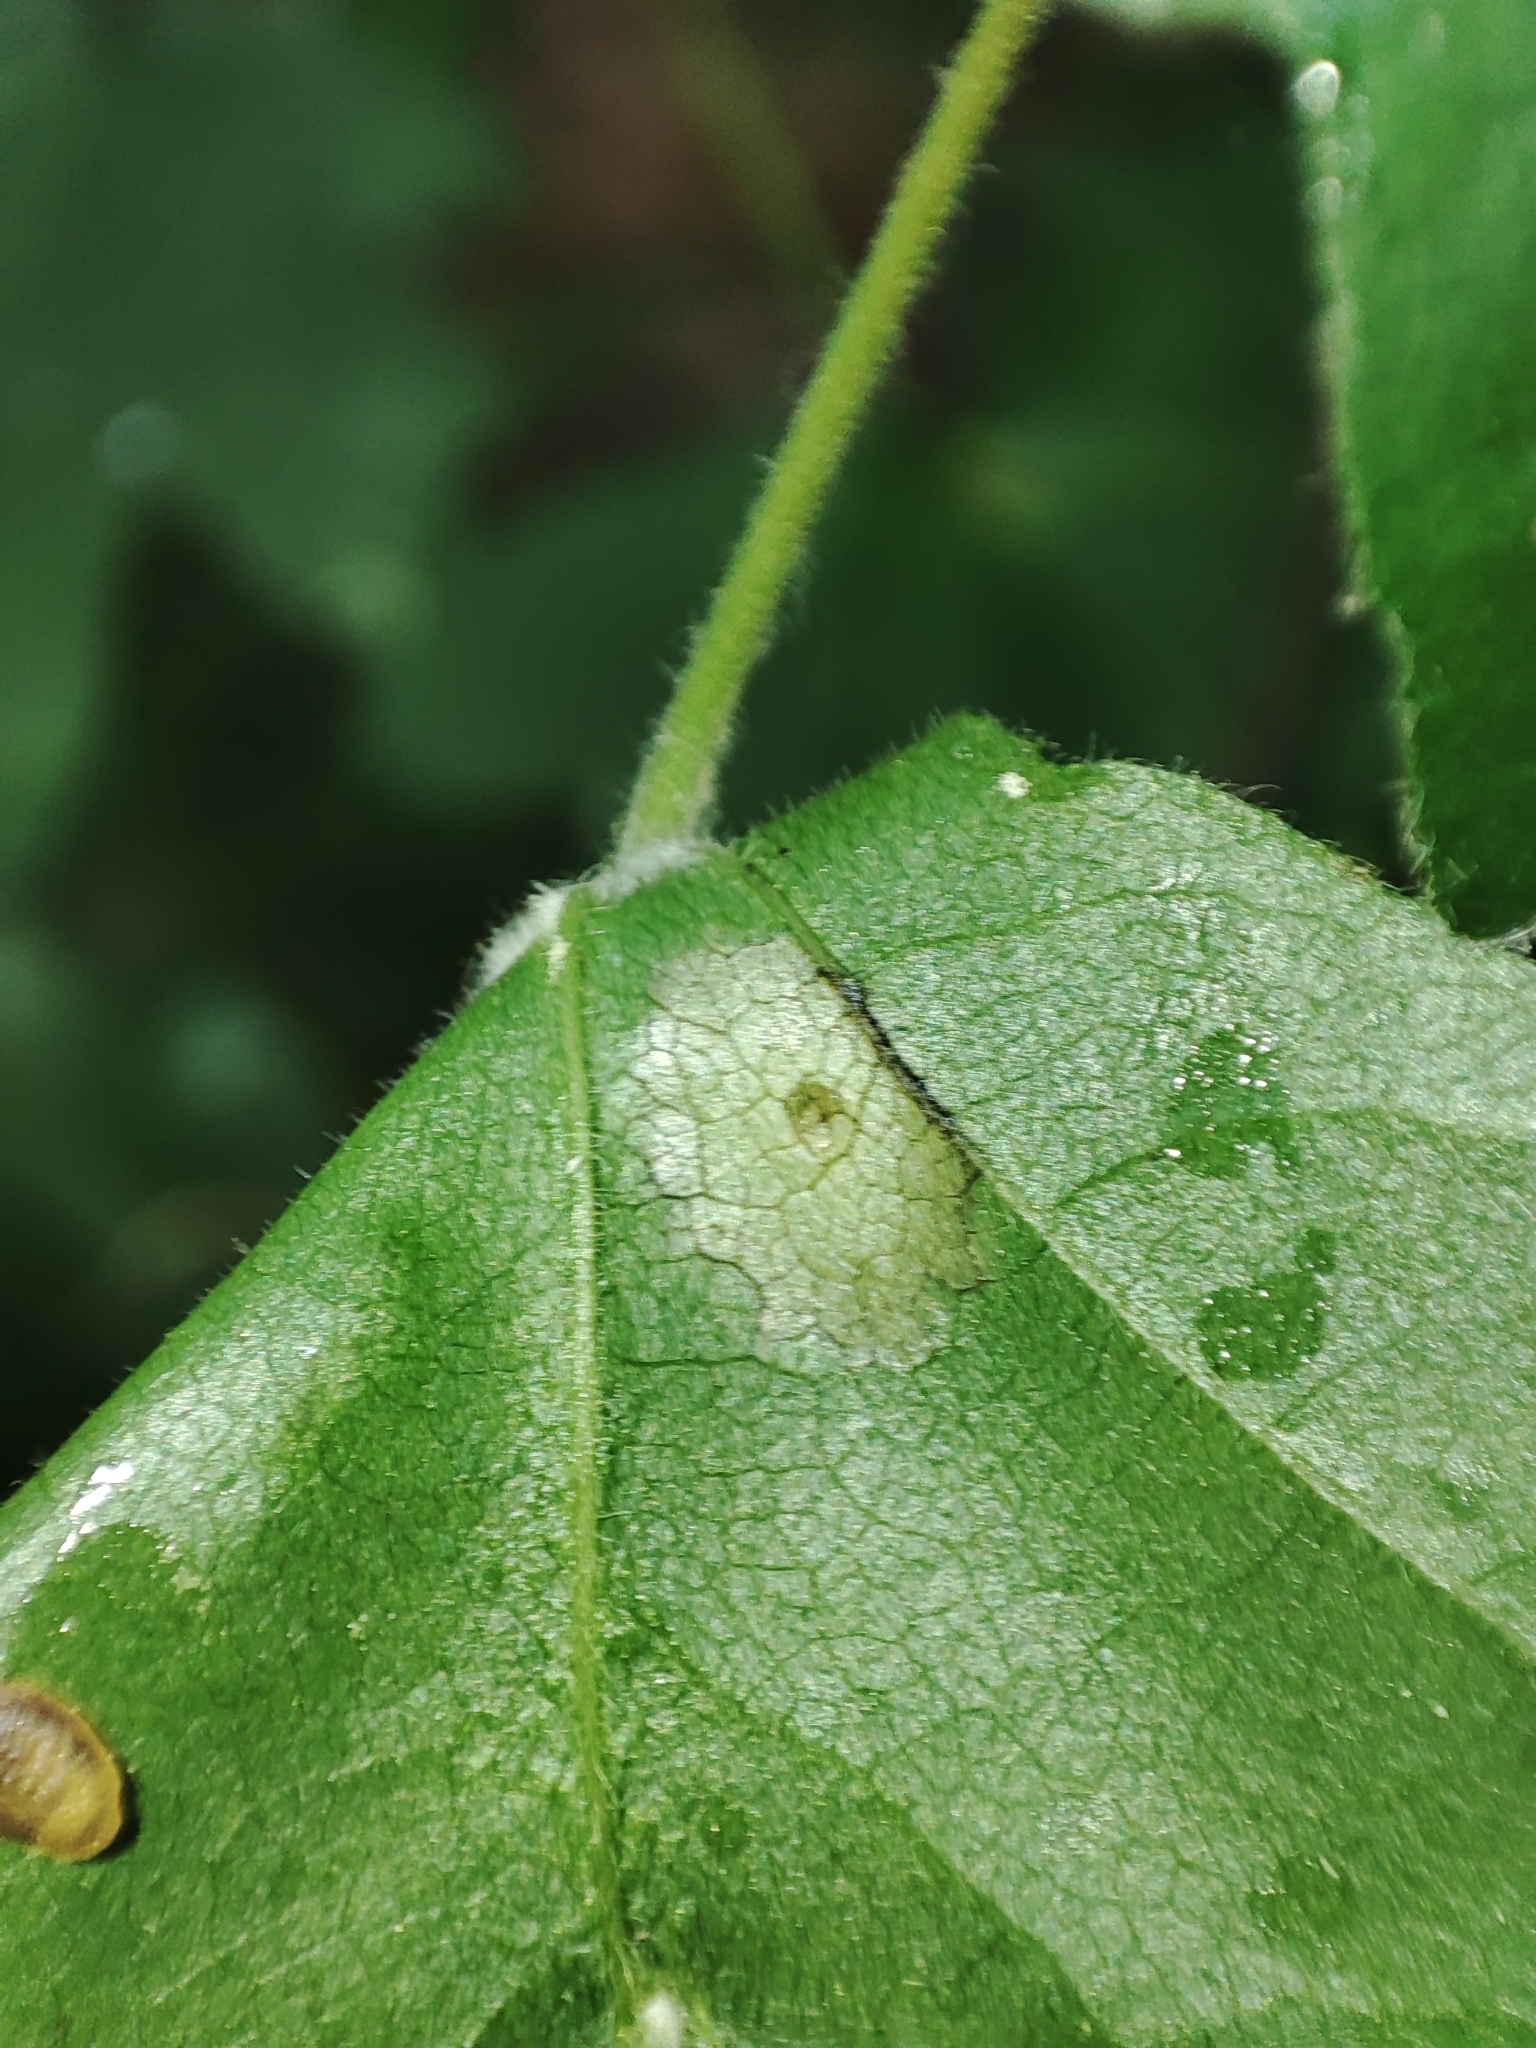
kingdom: Plantae
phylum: Tracheophyta
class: Magnoliopsida
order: Sapindales
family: Sapindaceae
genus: Acer
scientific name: Acer campestre
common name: Field maple
